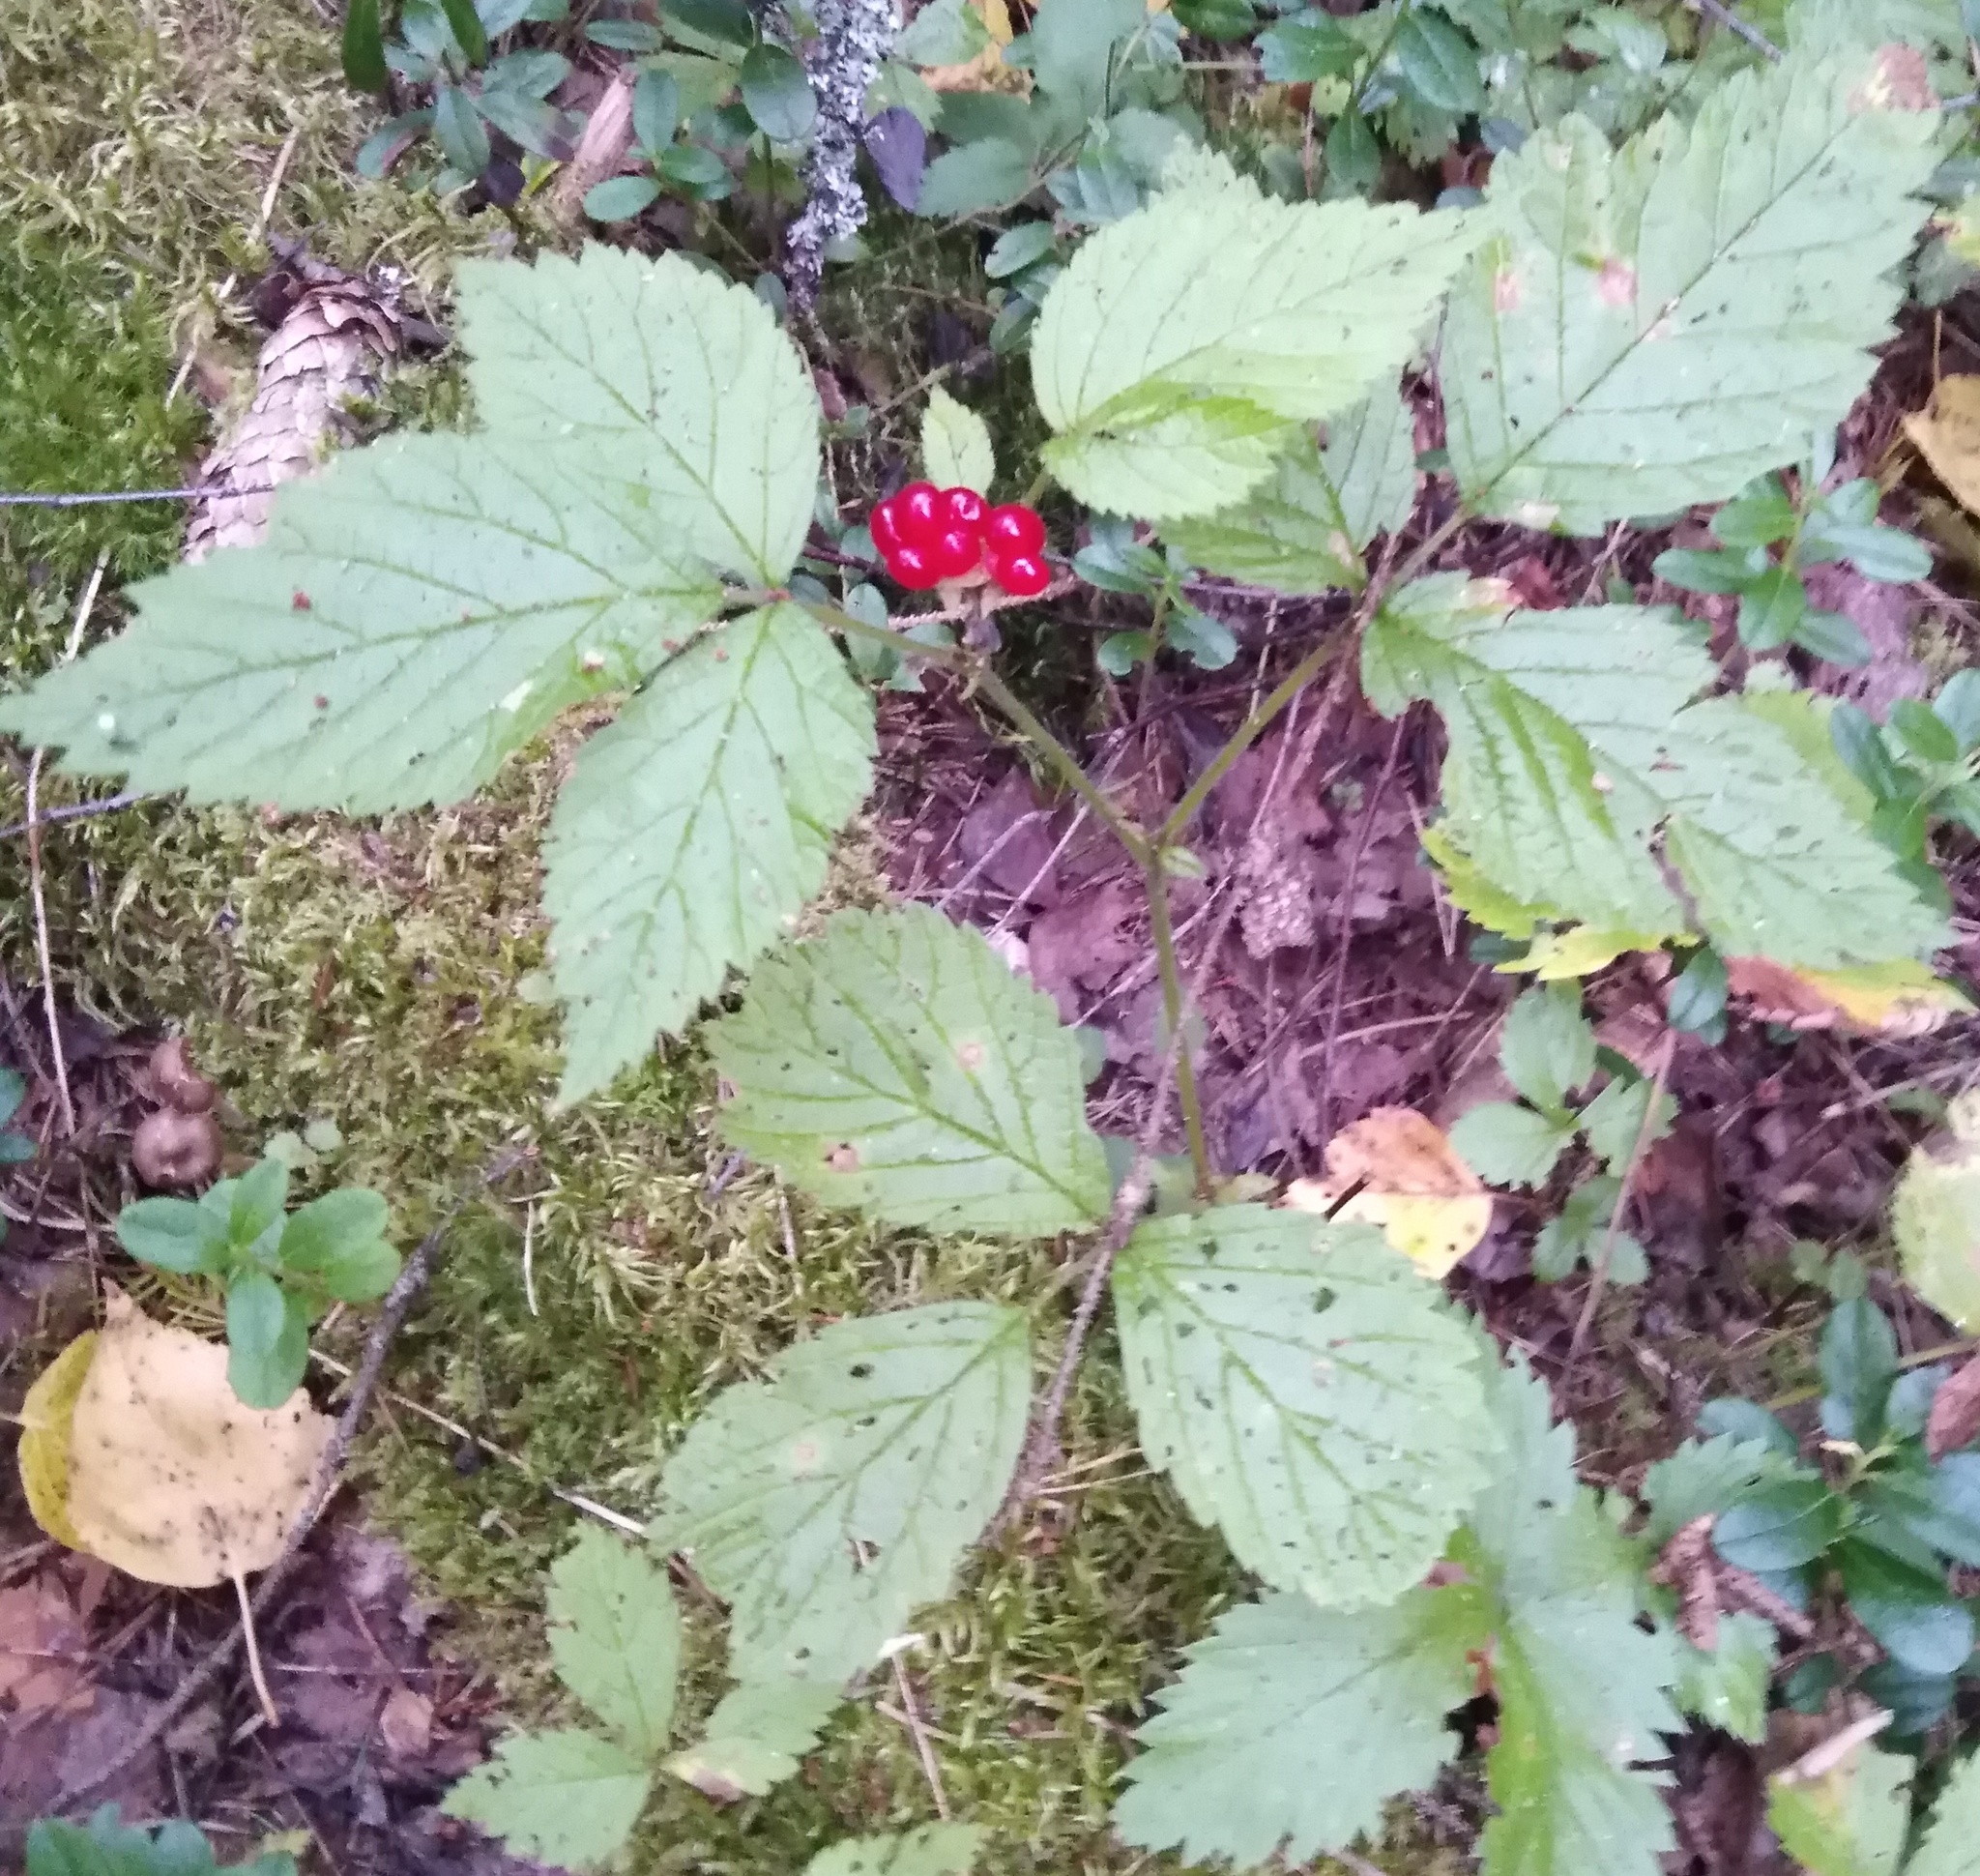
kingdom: Plantae
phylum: Tracheophyta
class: Magnoliopsida
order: Rosales
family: Rosaceae
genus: Rubus
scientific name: Rubus saxatilis
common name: Stone bramble
